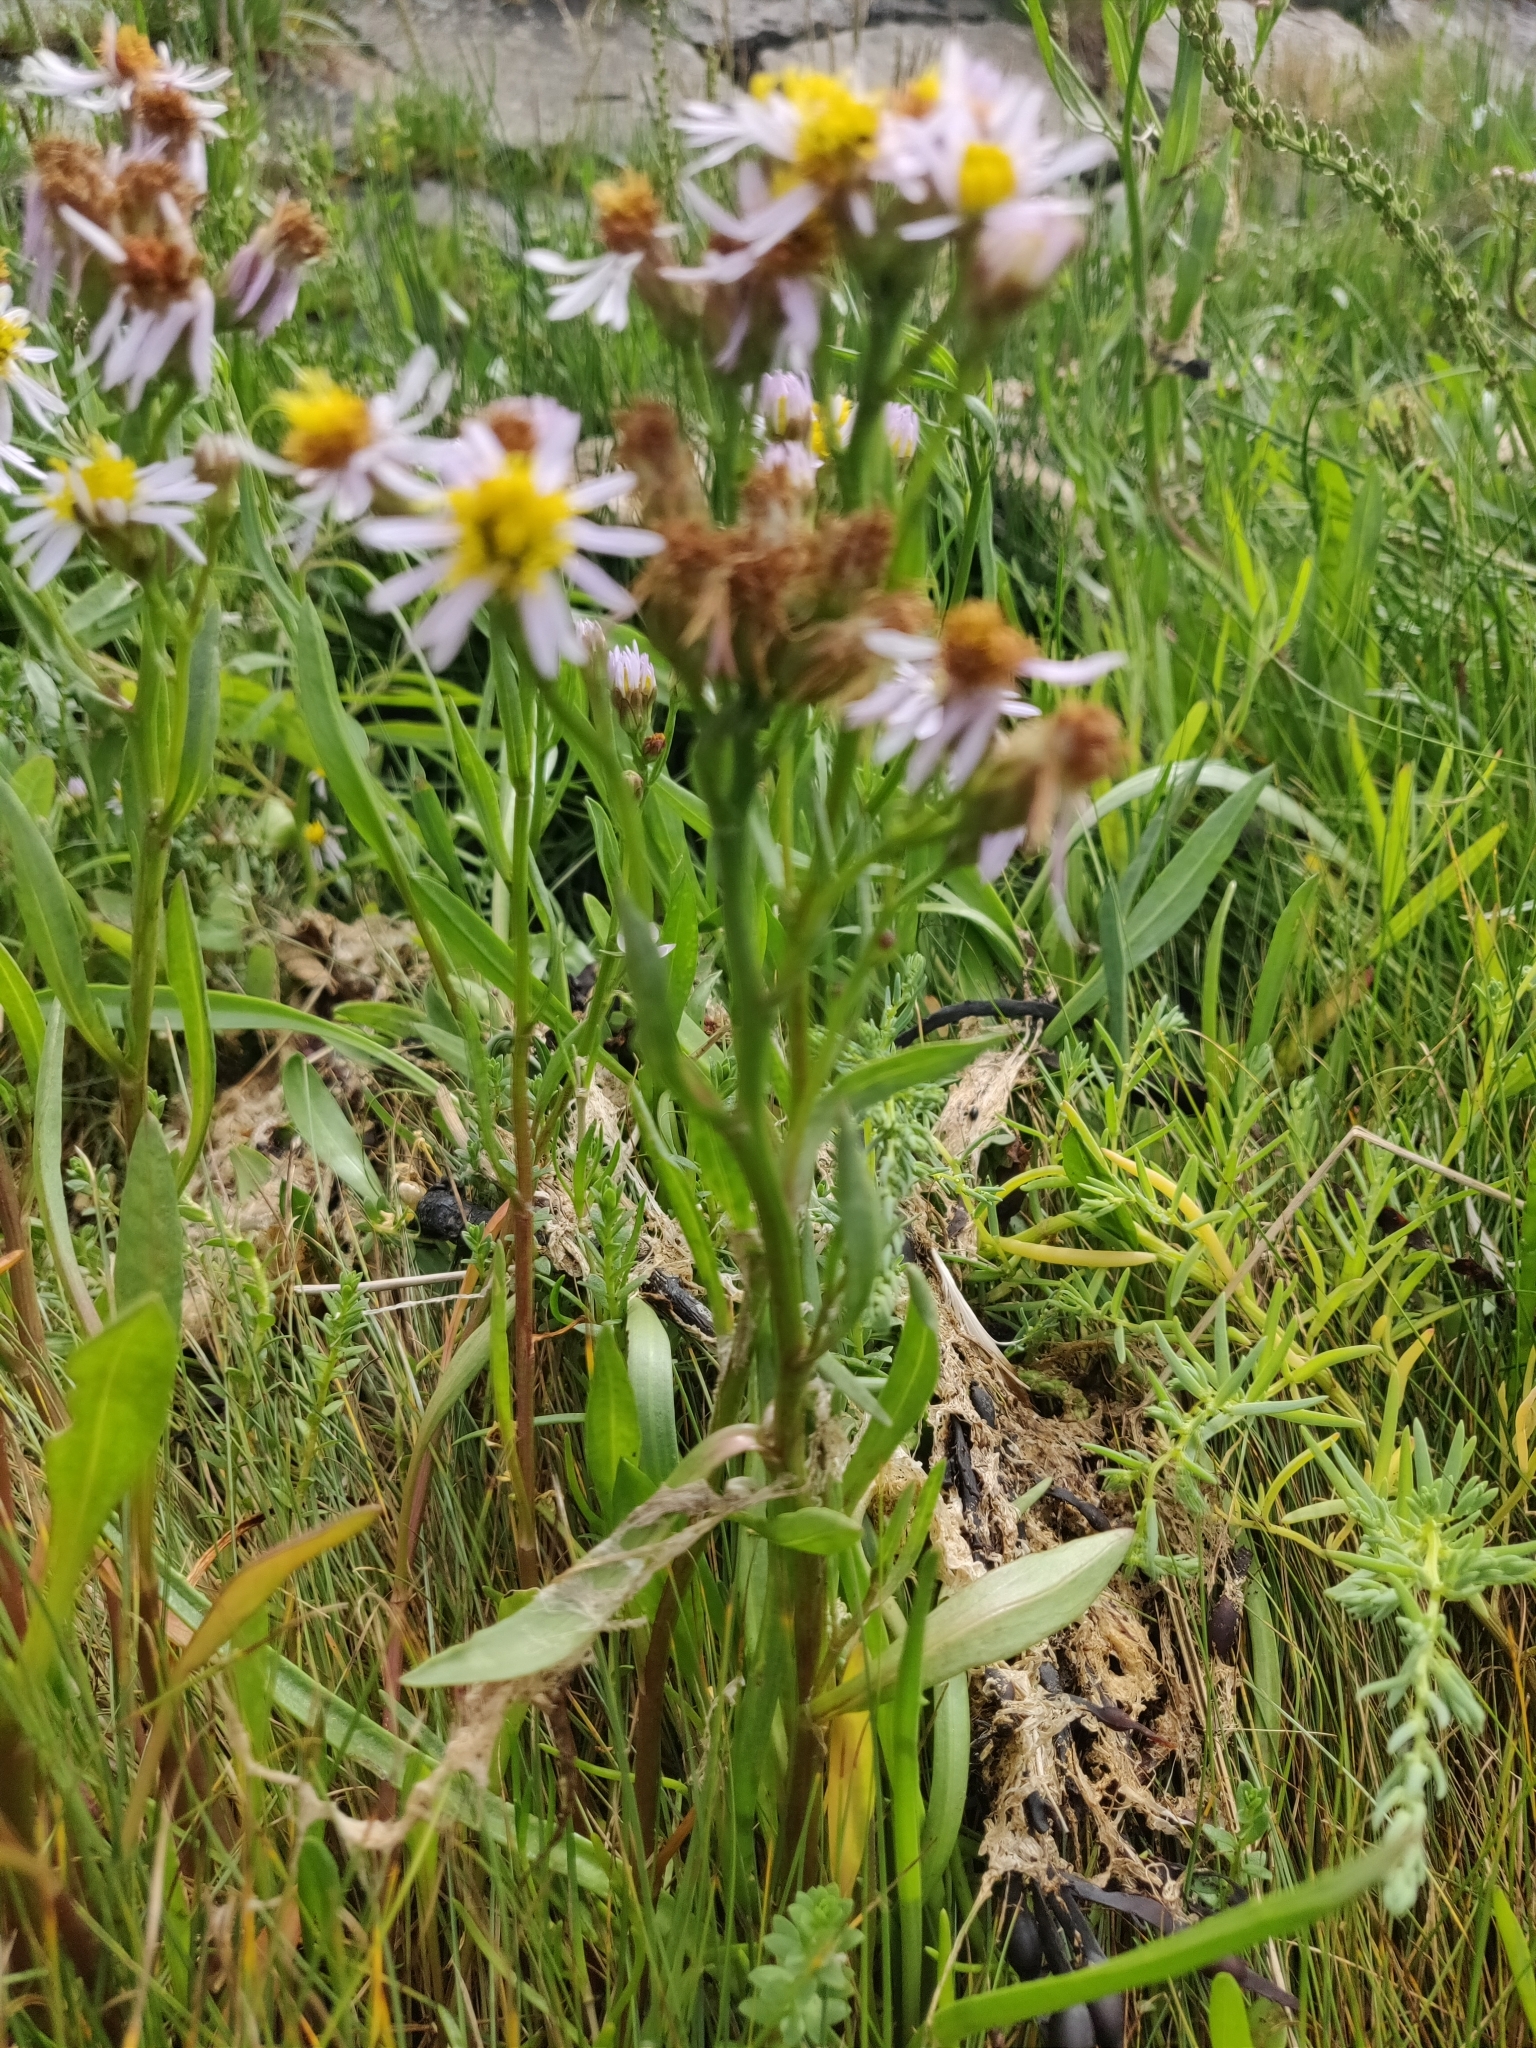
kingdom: Plantae
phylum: Tracheophyta
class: Magnoliopsida
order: Asterales
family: Asteraceae
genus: Tripolium
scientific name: Tripolium pannonicum
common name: Sea aster
